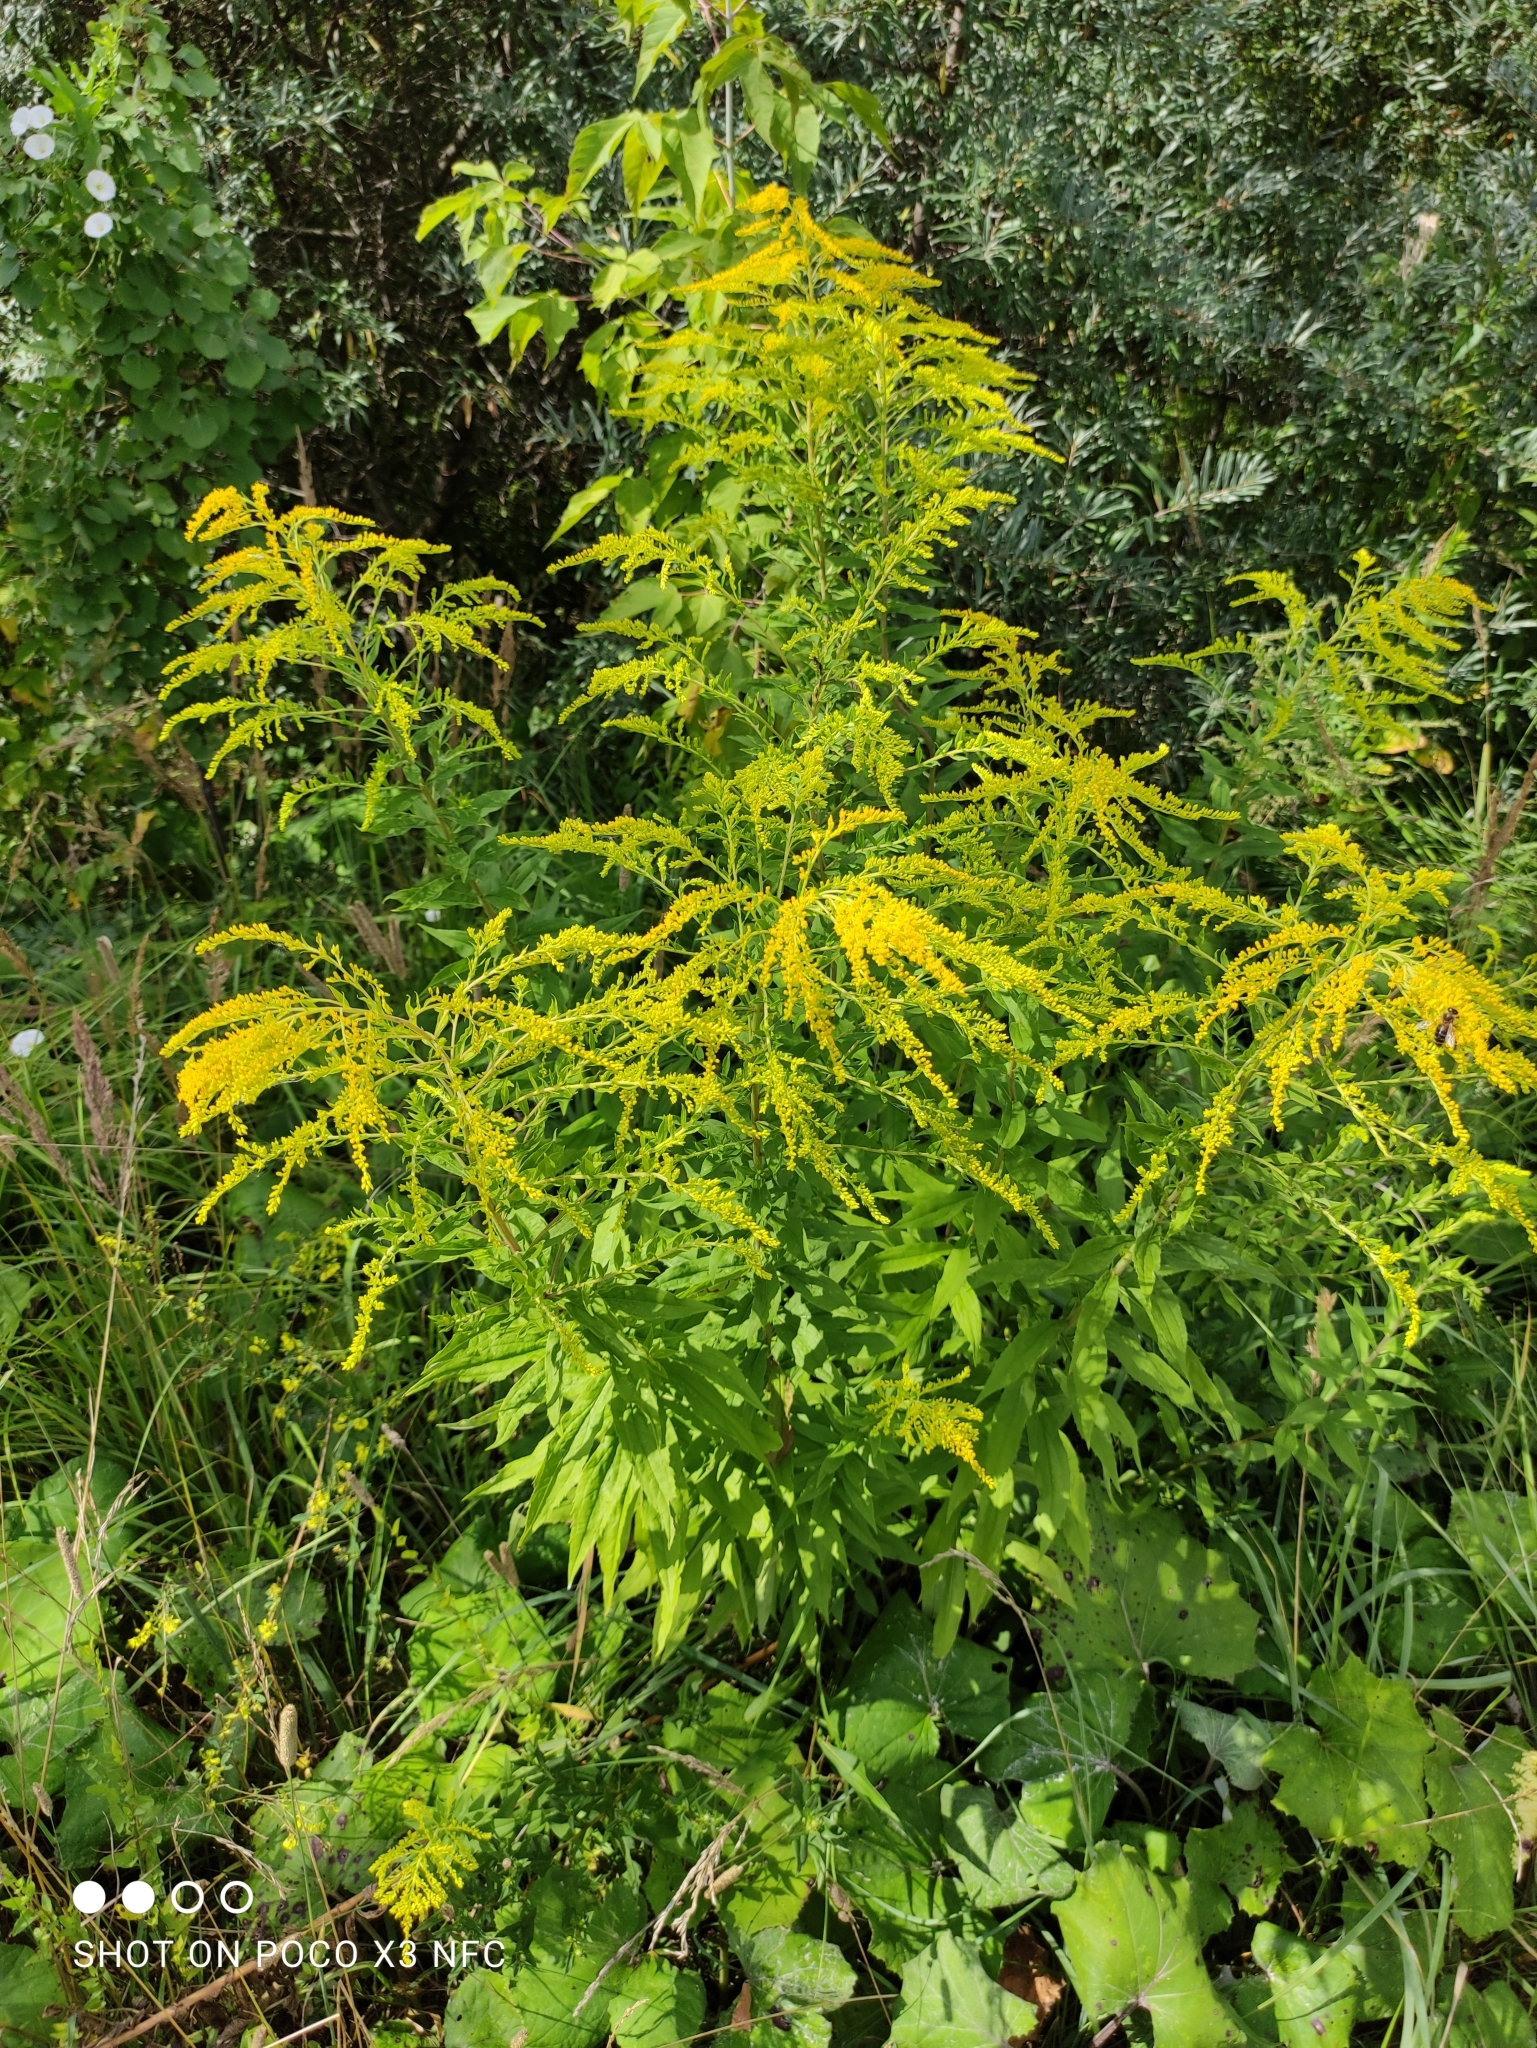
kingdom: Plantae
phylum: Tracheophyta
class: Magnoliopsida
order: Asterales
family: Asteraceae
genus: Solidago
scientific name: Solidago canadensis
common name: Canada goldenrod
